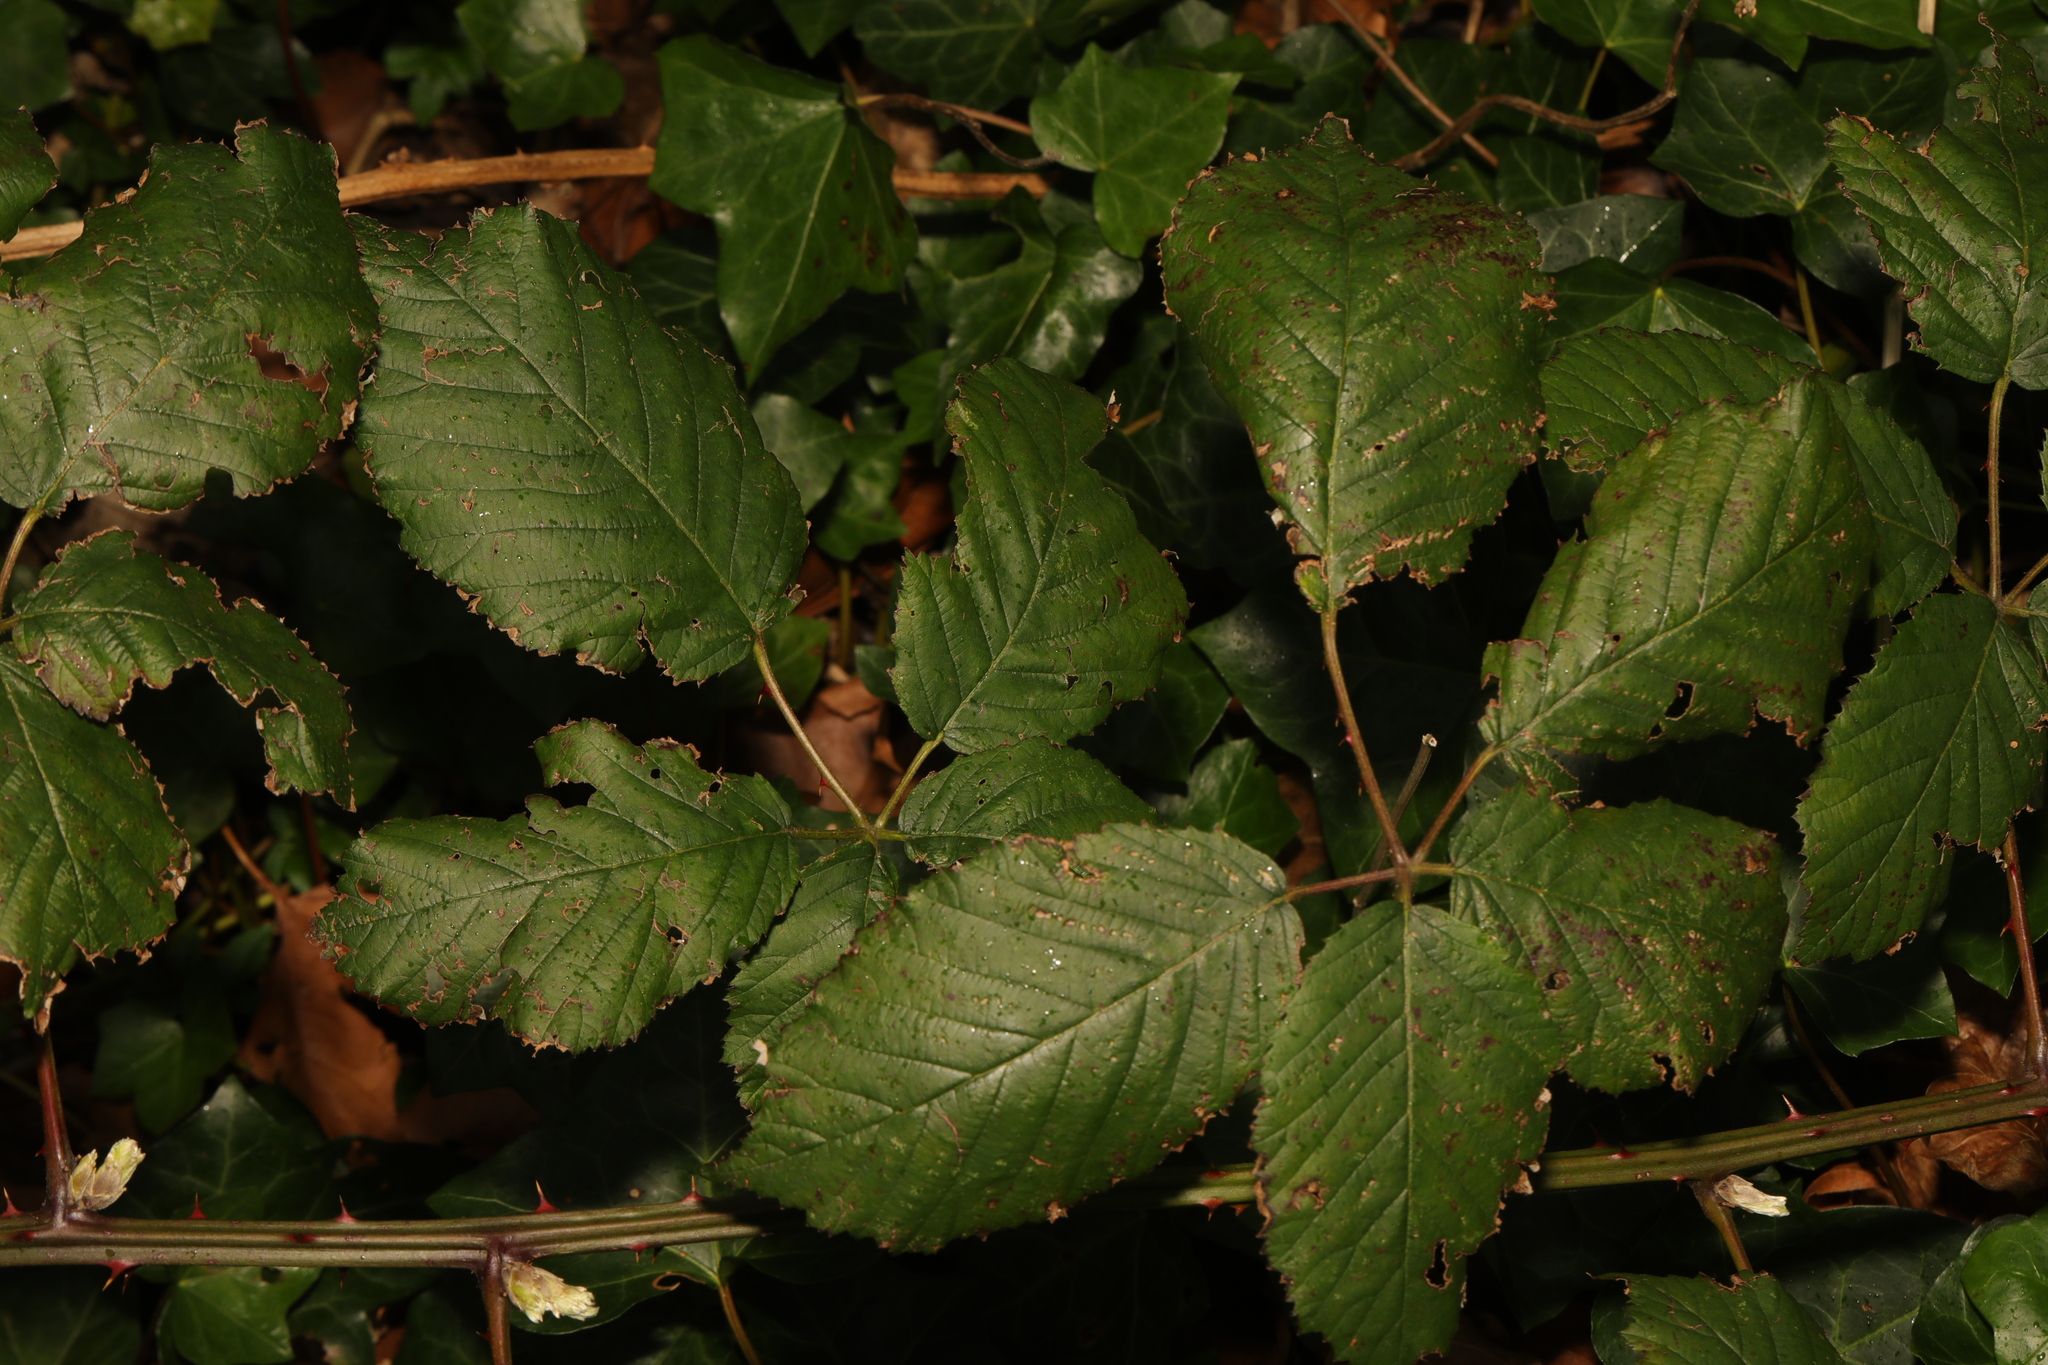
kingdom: Plantae
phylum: Tracheophyta
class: Magnoliopsida
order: Rosales
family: Rosaceae
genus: Rubus
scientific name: Rubus armeniacus
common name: Himalayan blackberry
